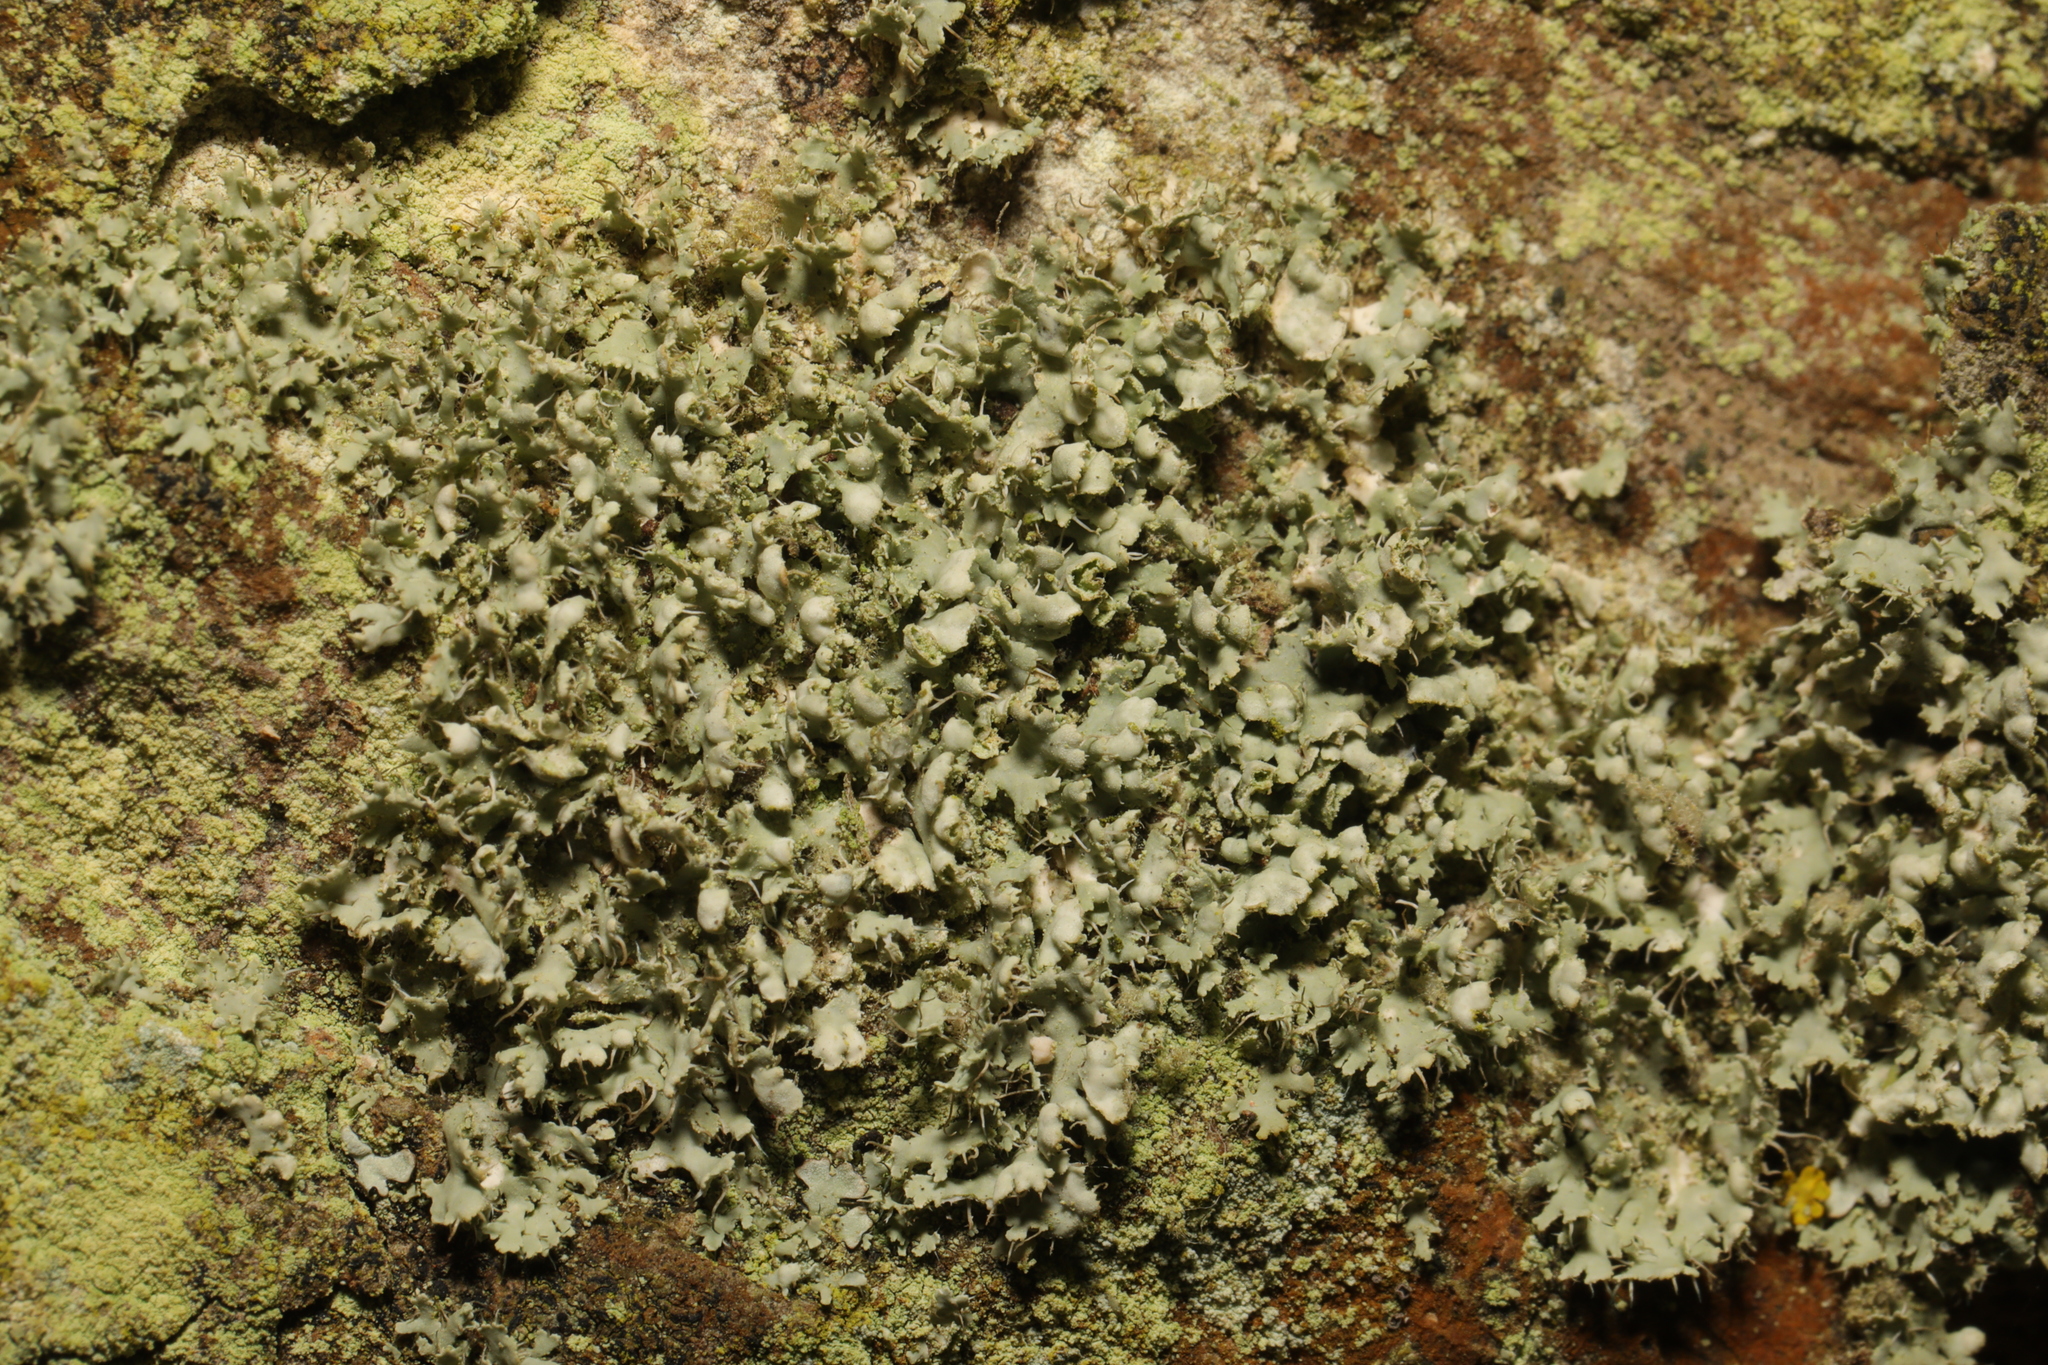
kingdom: Fungi
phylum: Ascomycota
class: Lecanoromycetes
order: Caliciales
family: Physciaceae
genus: Physcia
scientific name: Physcia adscendens
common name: Hooded rosette lichen
